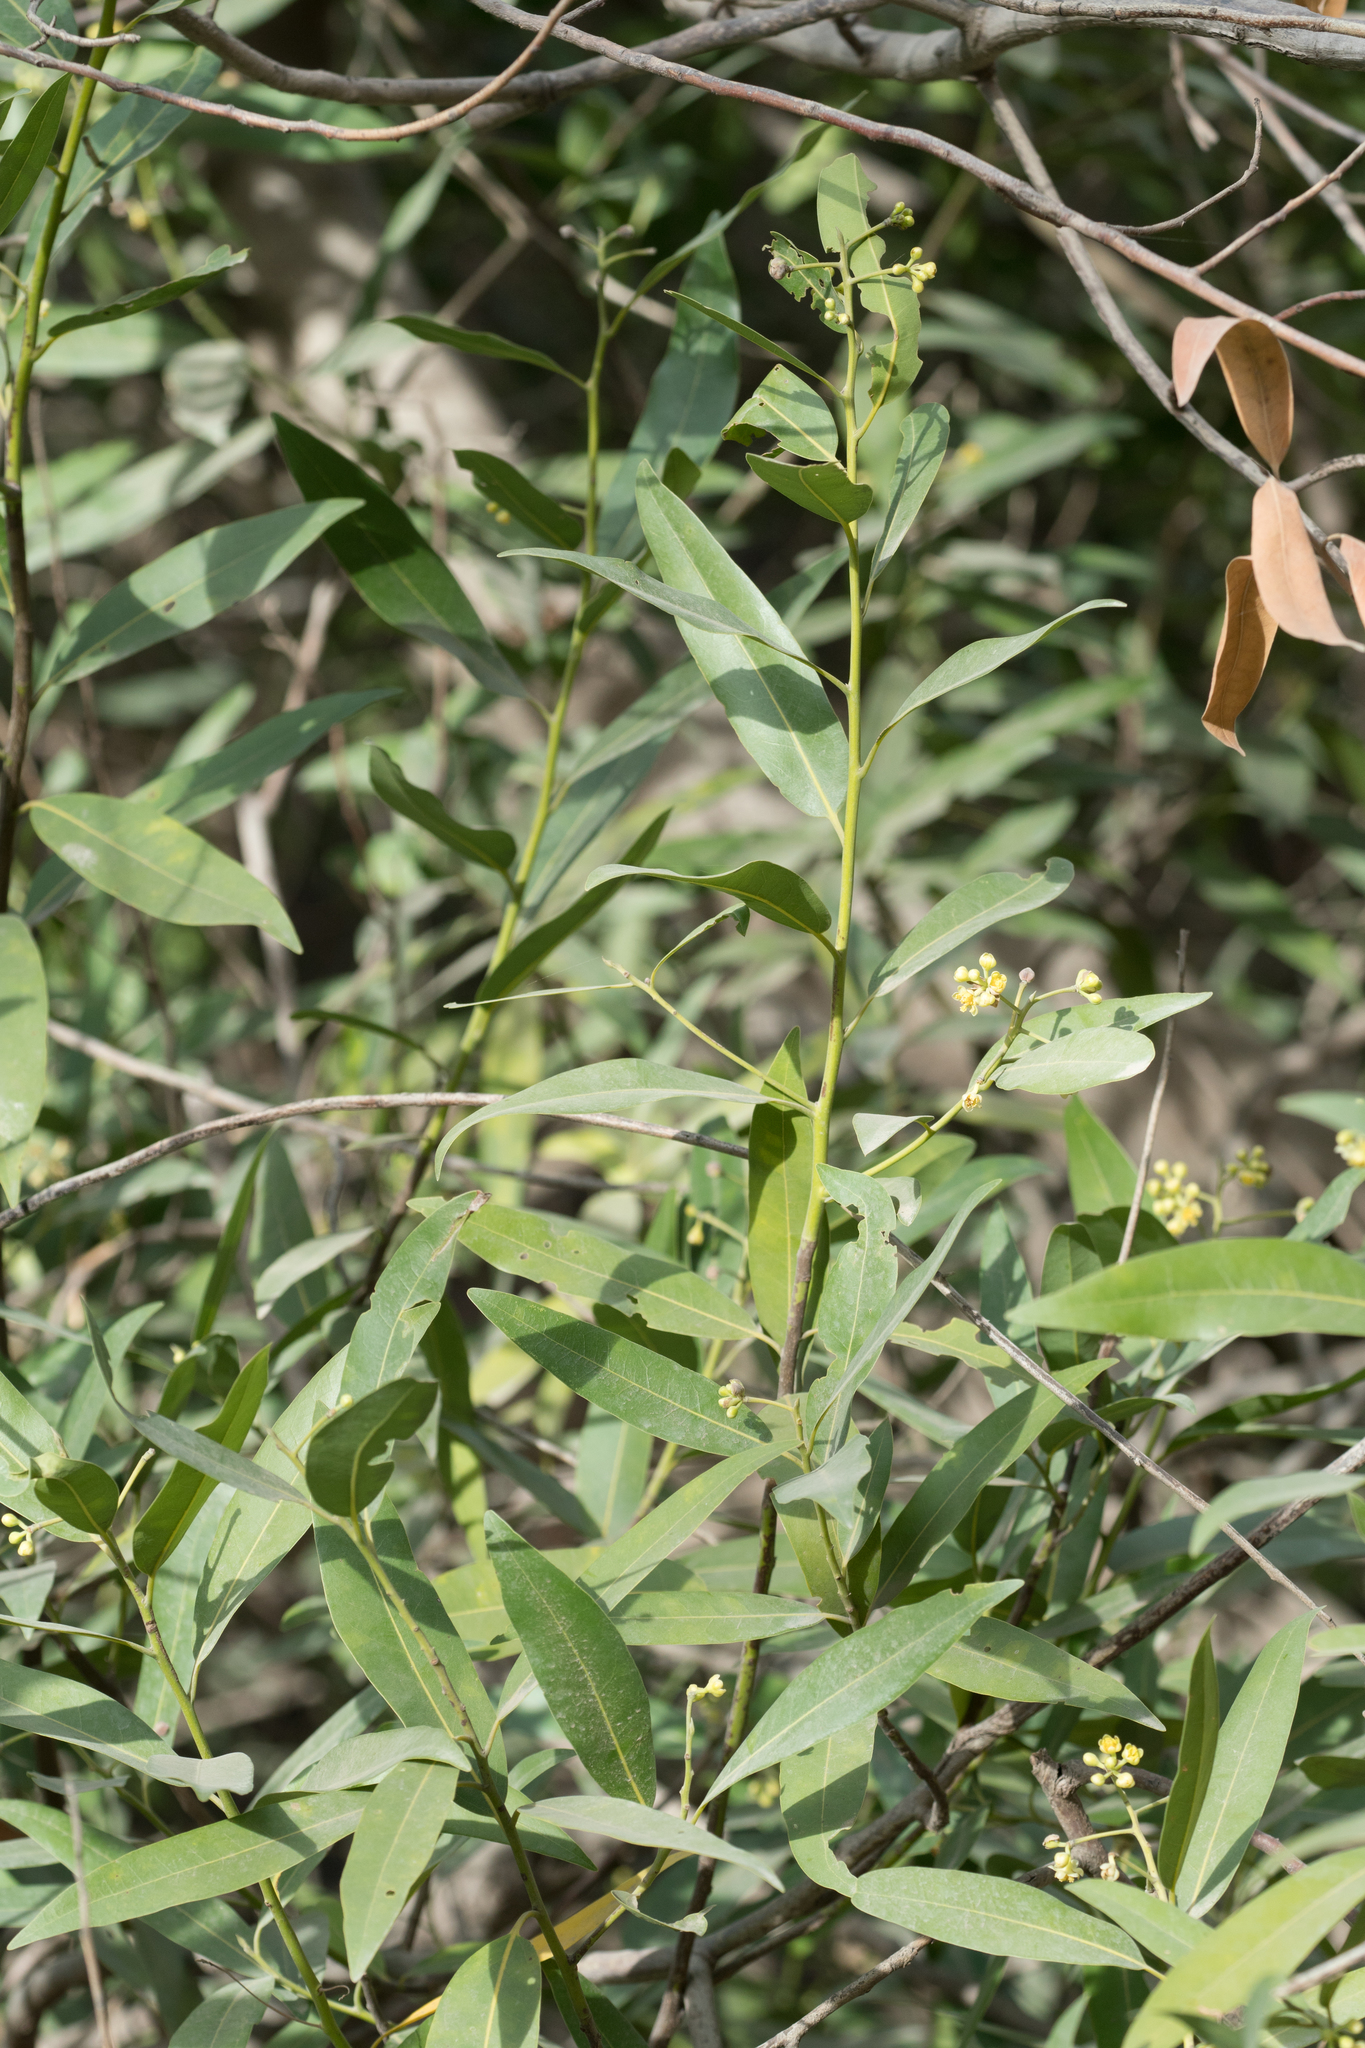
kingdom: Plantae
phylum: Tracheophyta
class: Magnoliopsida
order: Laurales
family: Lauraceae
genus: Umbellularia
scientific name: Umbellularia californica
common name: California bay
